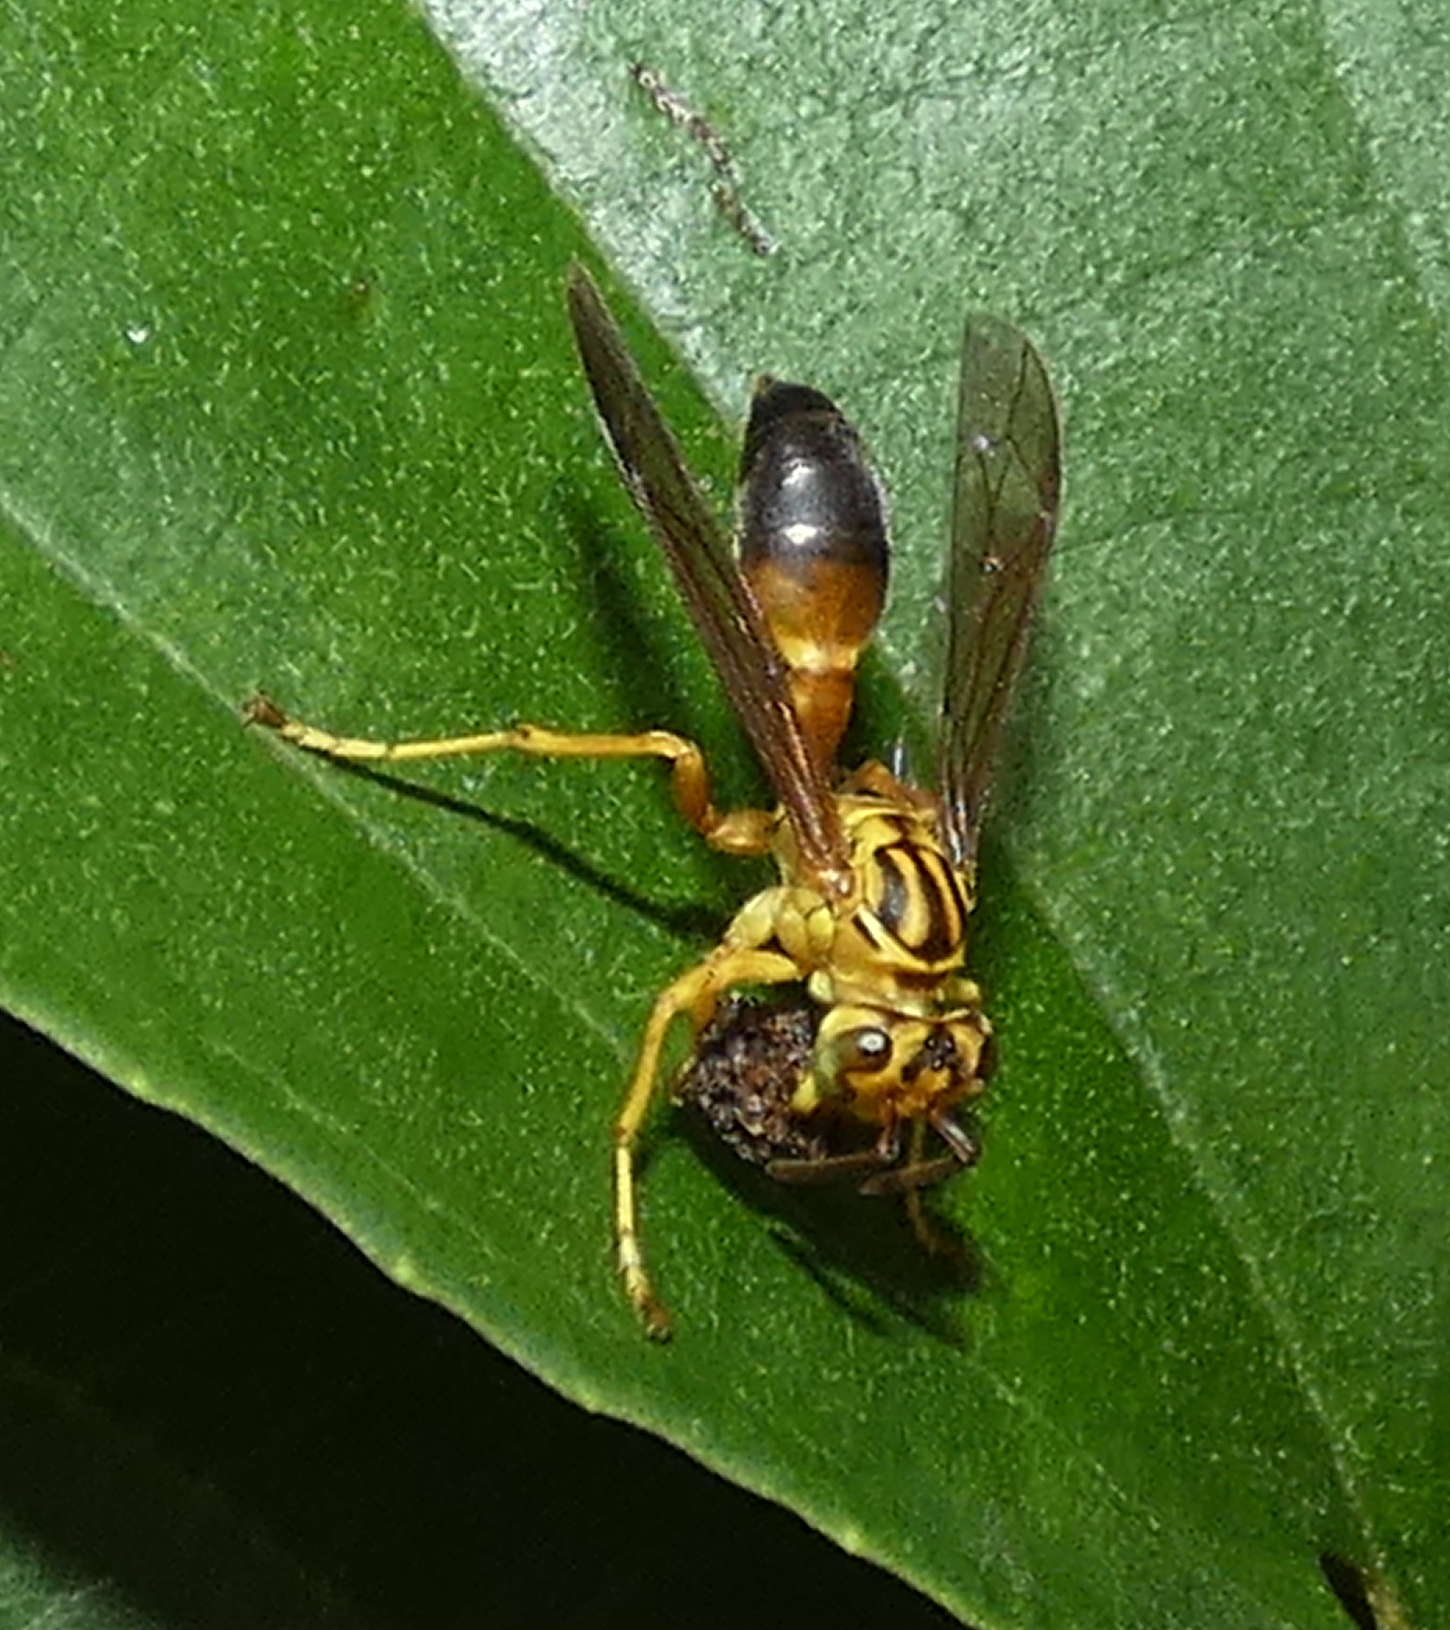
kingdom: Animalia
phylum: Arthropoda
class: Insecta
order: Hymenoptera
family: Vespidae
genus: Agelaia
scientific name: Agelaia pallipes
